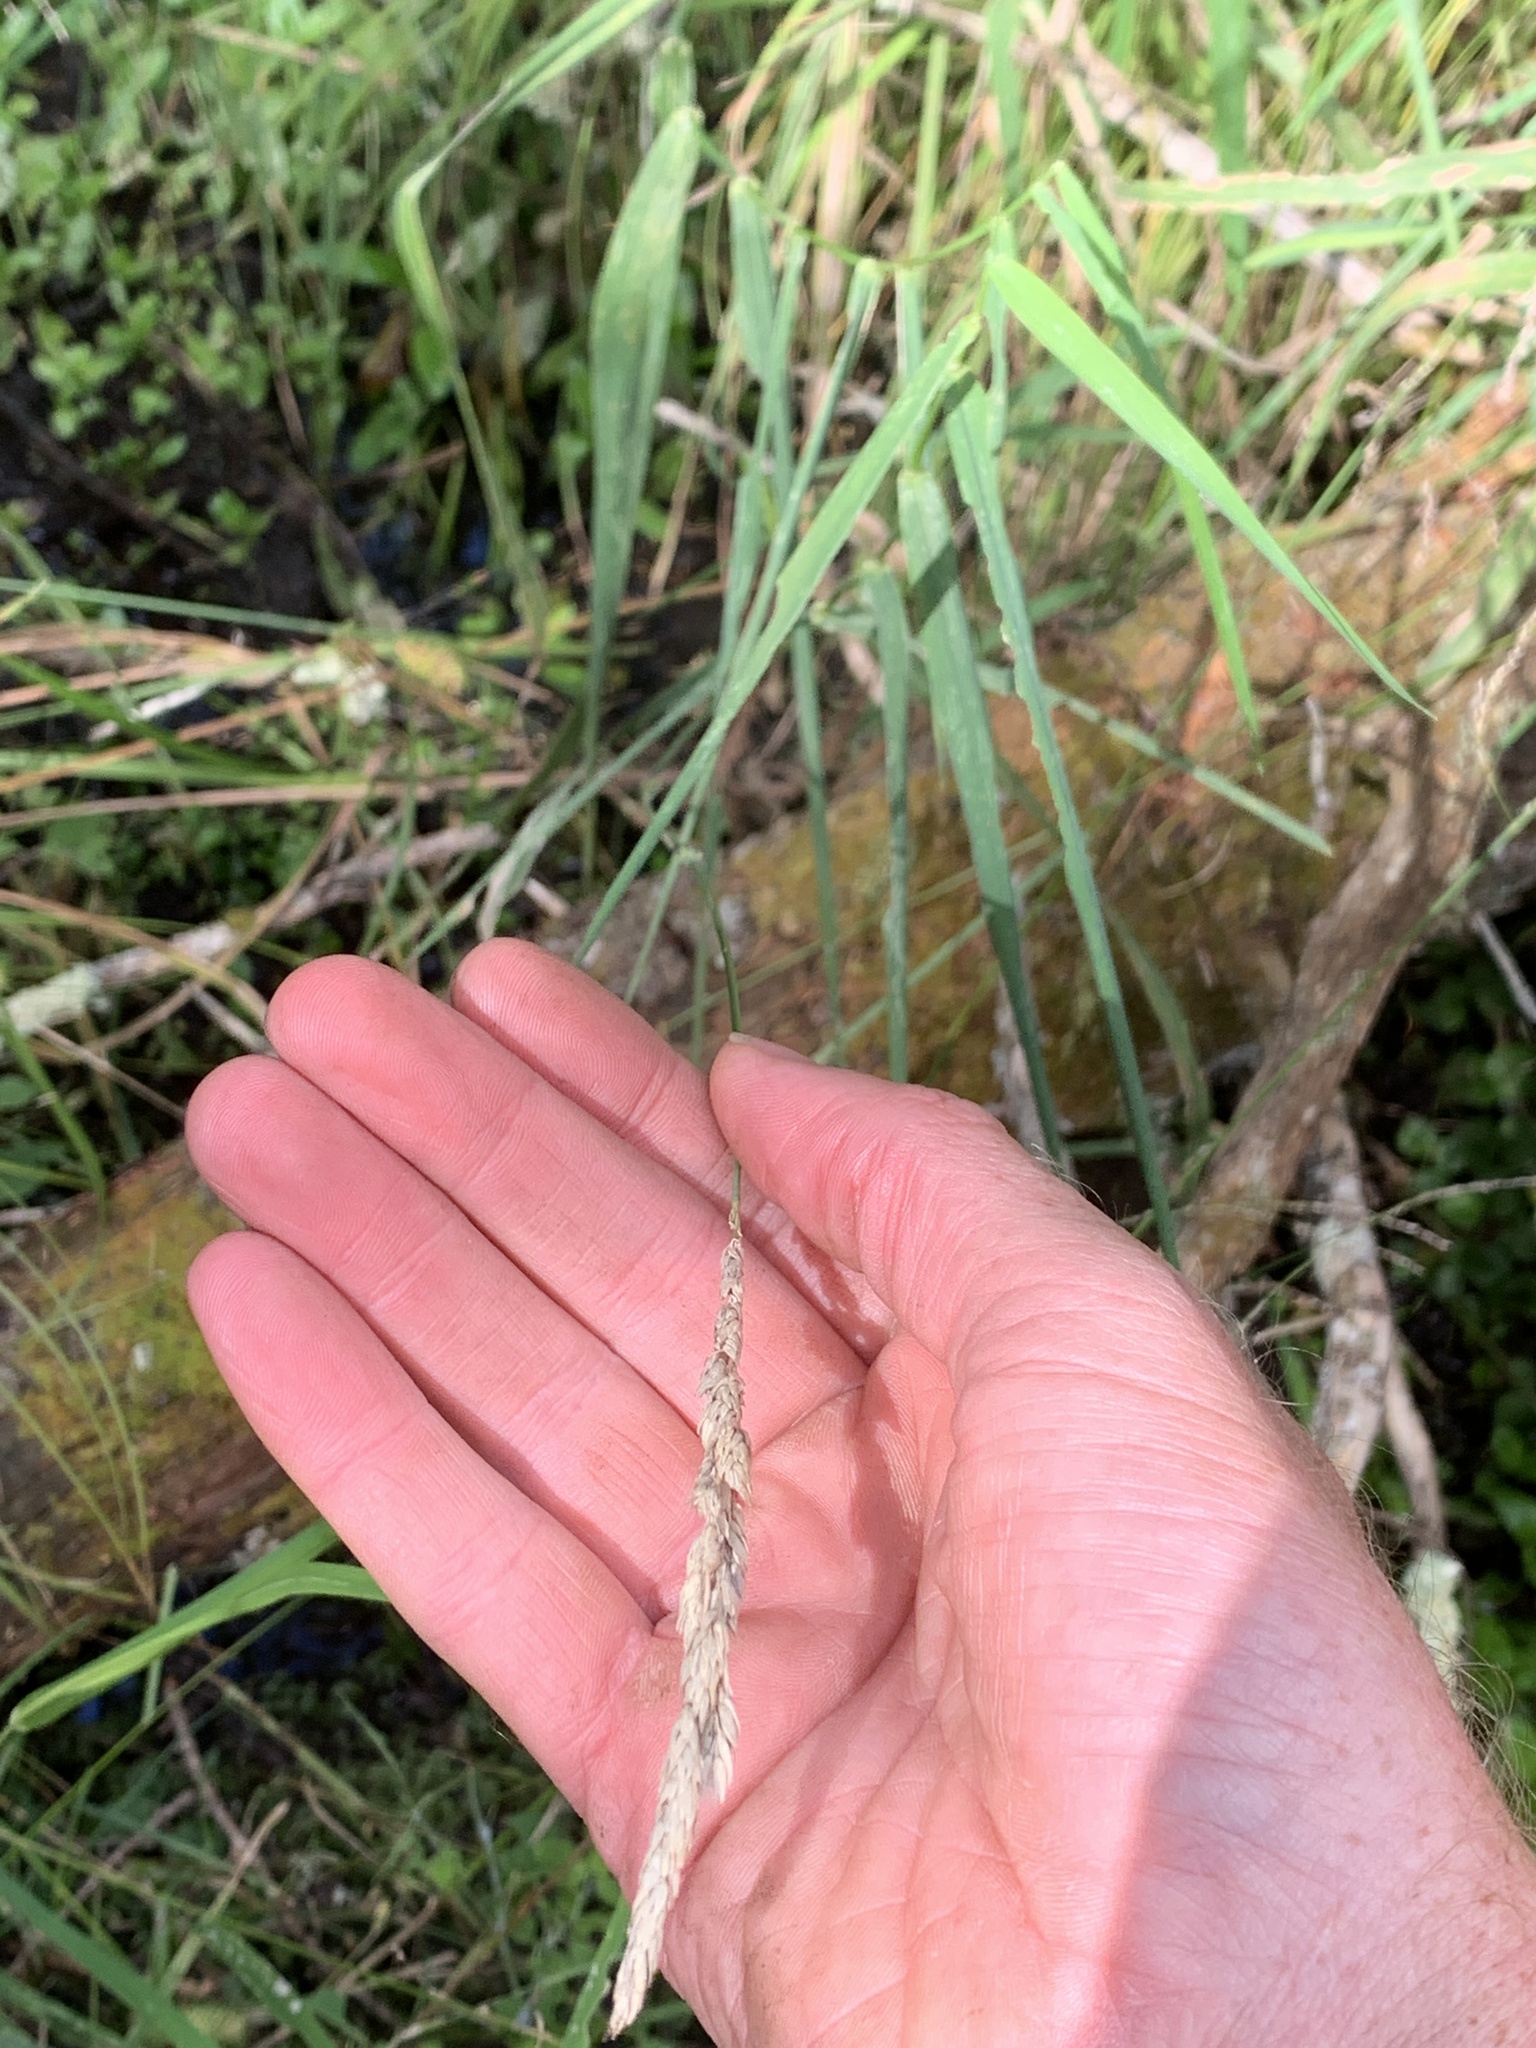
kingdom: Plantae
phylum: Tracheophyta
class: Liliopsida
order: Poales
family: Poaceae
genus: Phalaris
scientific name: Phalaris arundinacea
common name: Reed canary-grass
